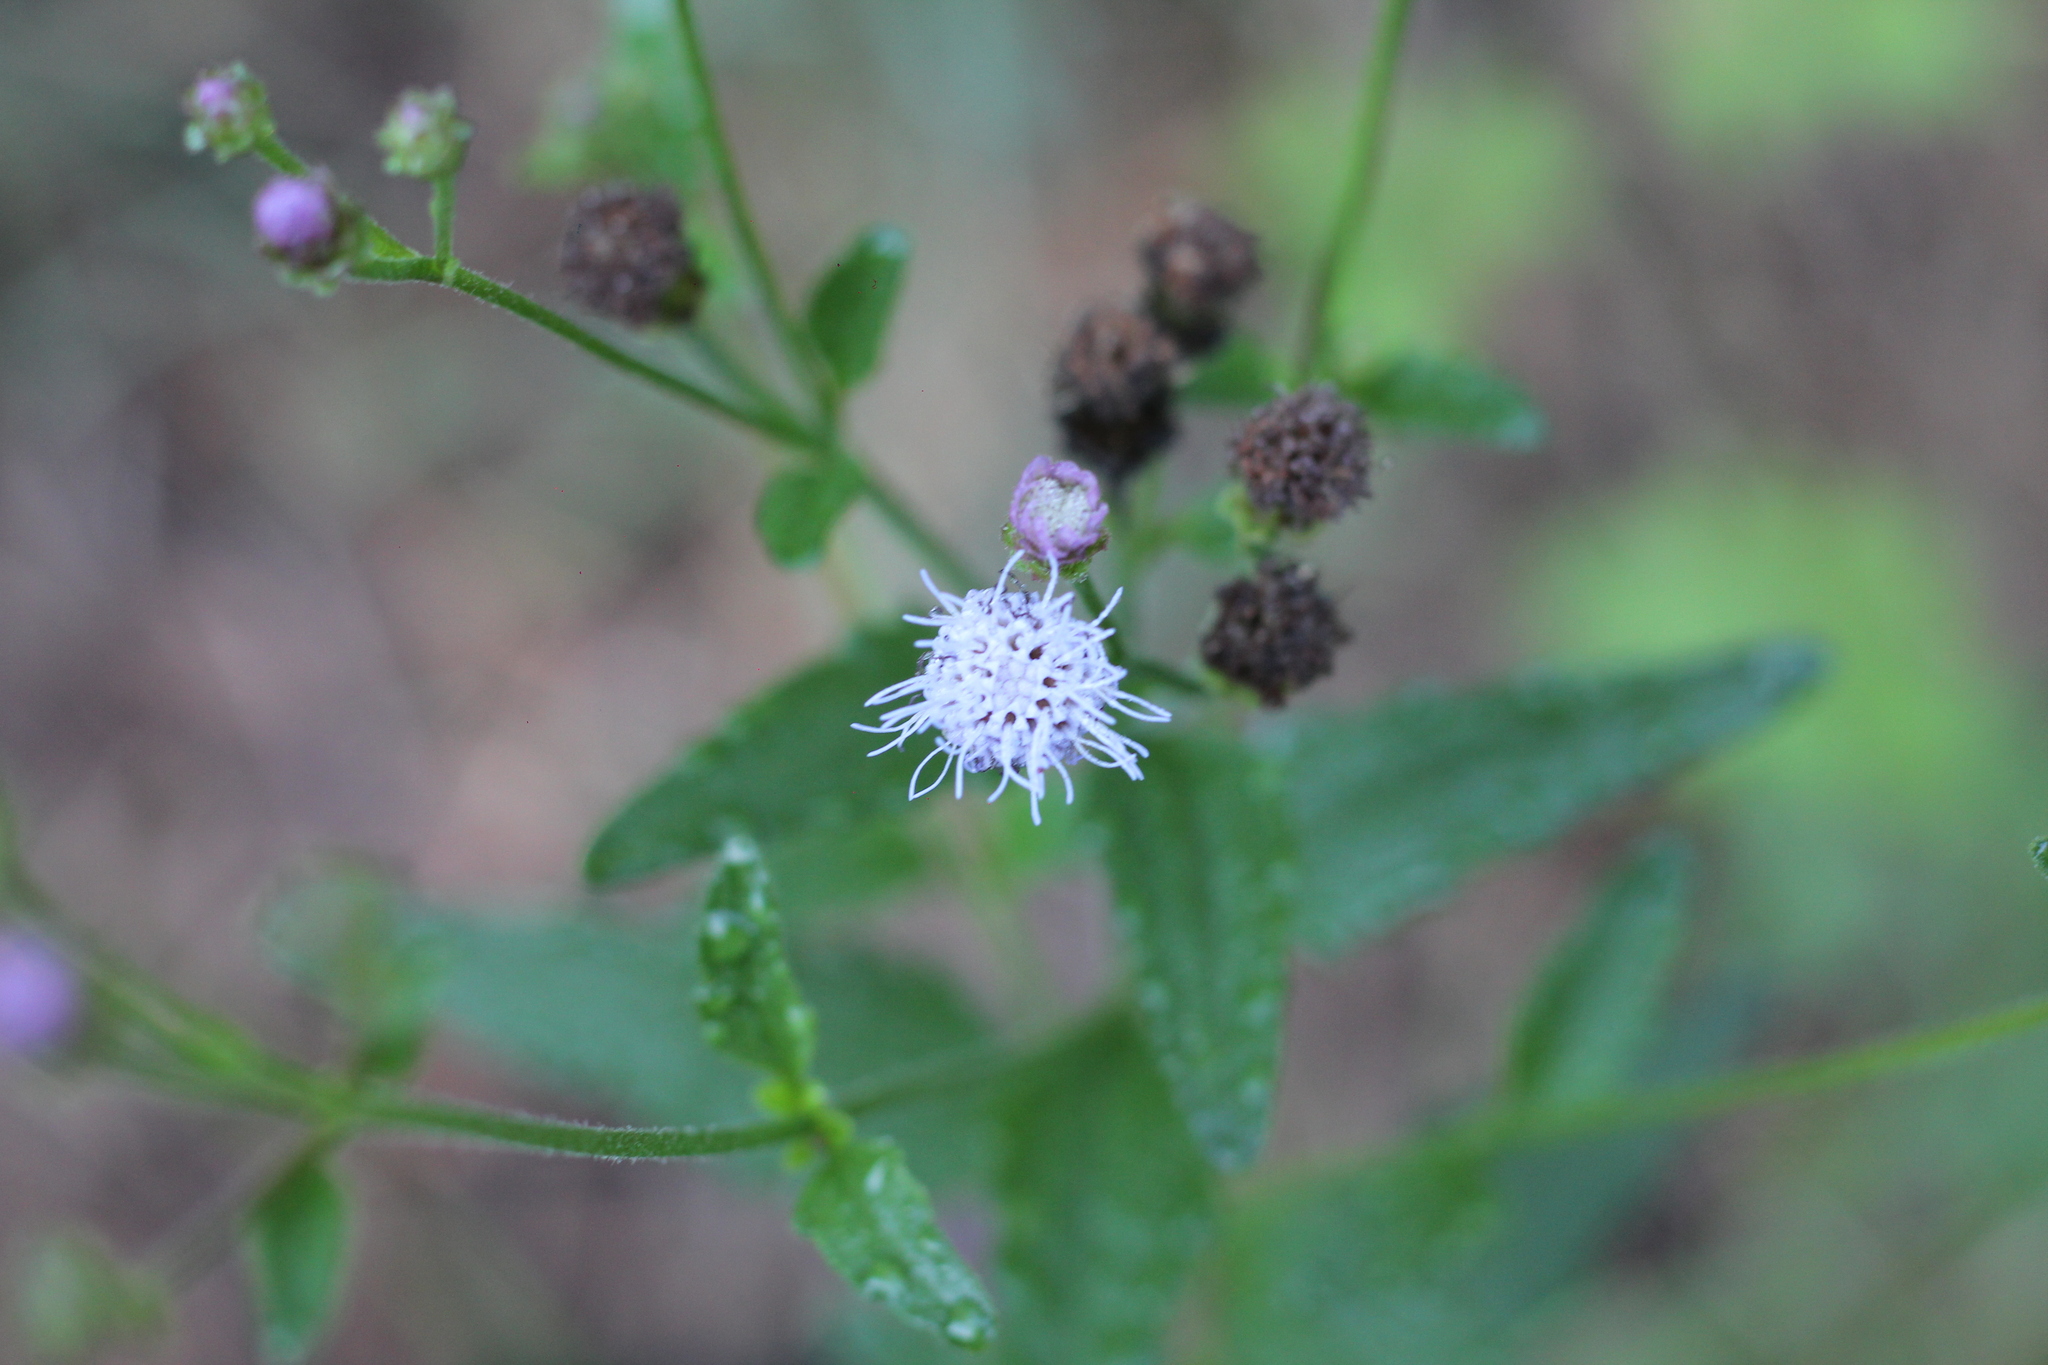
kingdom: Plantae
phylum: Tracheophyta
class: Magnoliopsida
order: Asterales
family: Asteraceae
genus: Chromolaena
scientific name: Chromolaena pedunculosa
